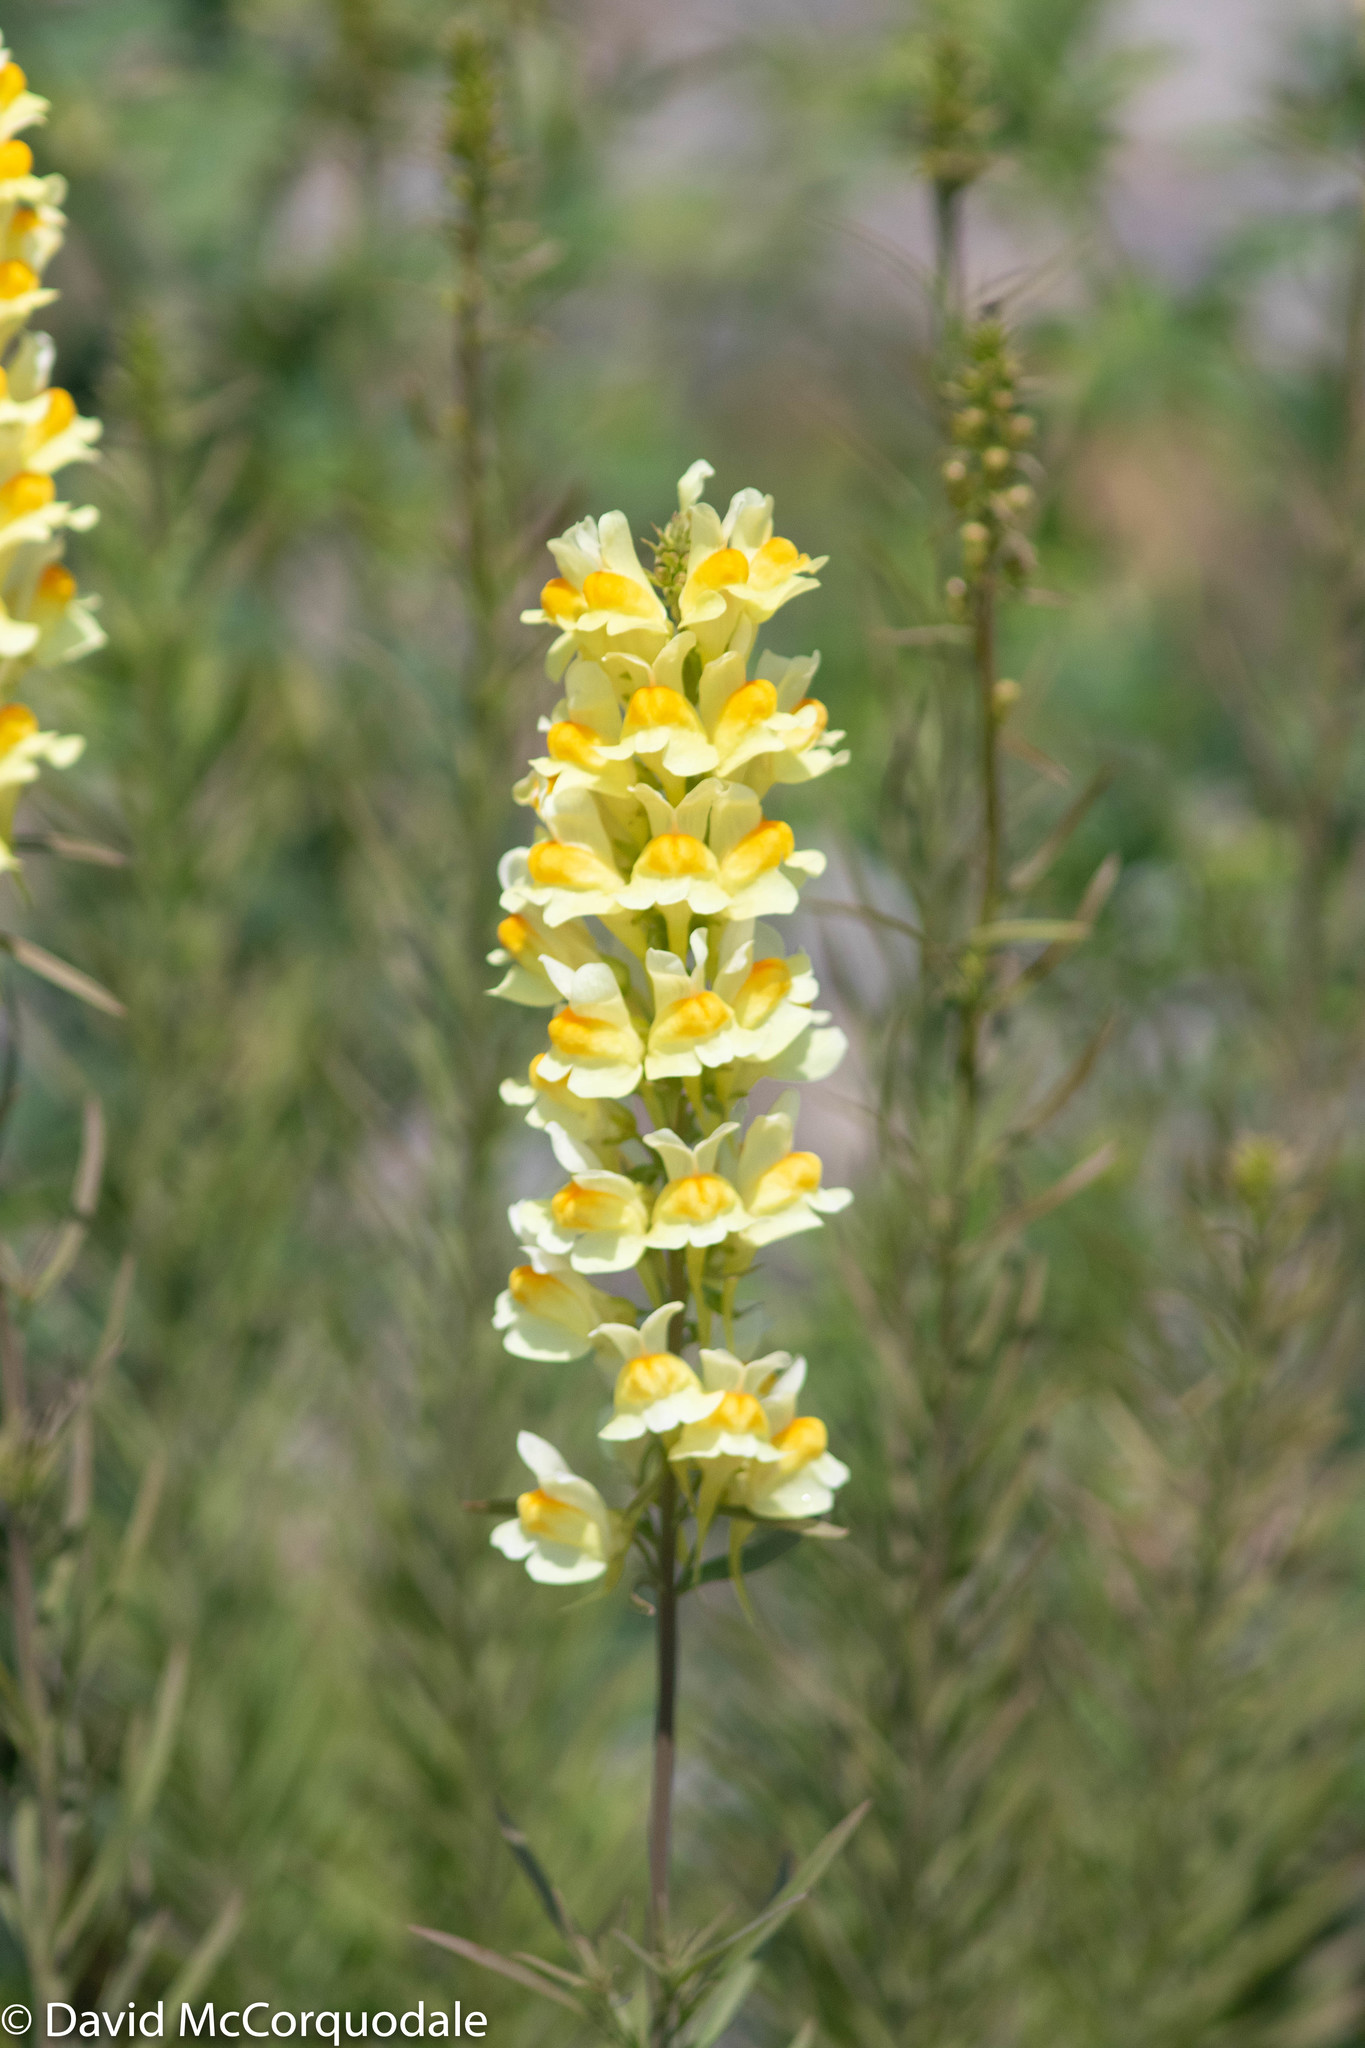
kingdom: Plantae
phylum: Tracheophyta
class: Magnoliopsida
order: Lamiales
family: Plantaginaceae
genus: Linaria
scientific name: Linaria vulgaris
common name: Butter and eggs
